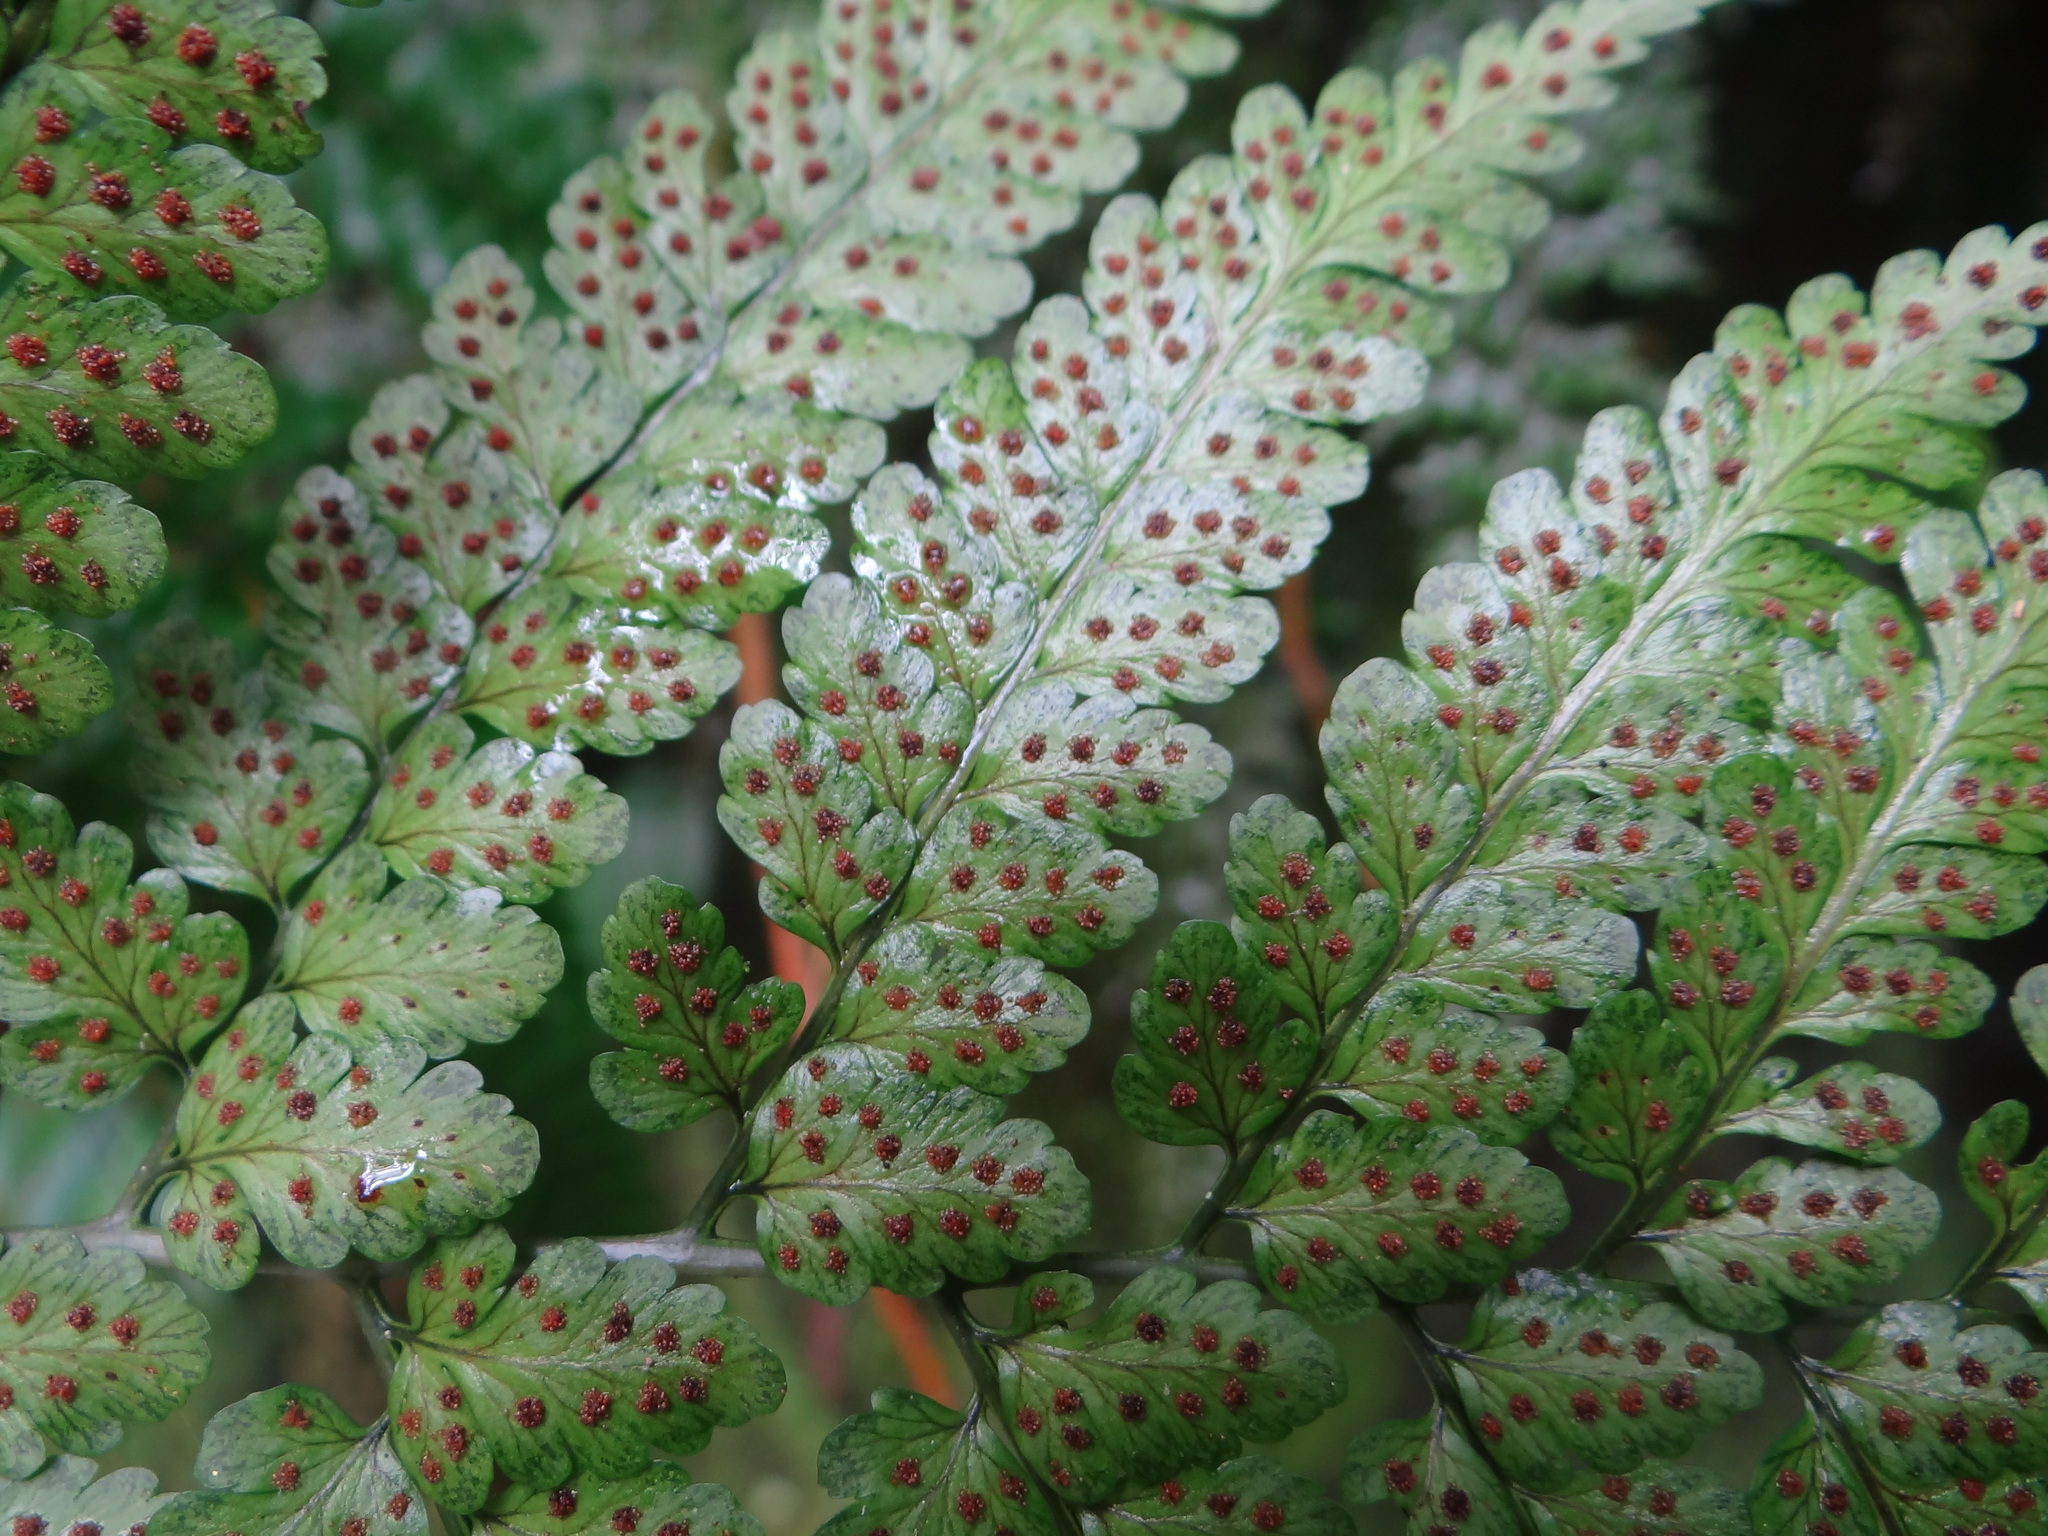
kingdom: Plantae
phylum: Tracheophyta
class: Polypodiopsida
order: Polypodiales
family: Dryopteridaceae
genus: Dryopteris
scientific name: Dryopteris hasseltii
